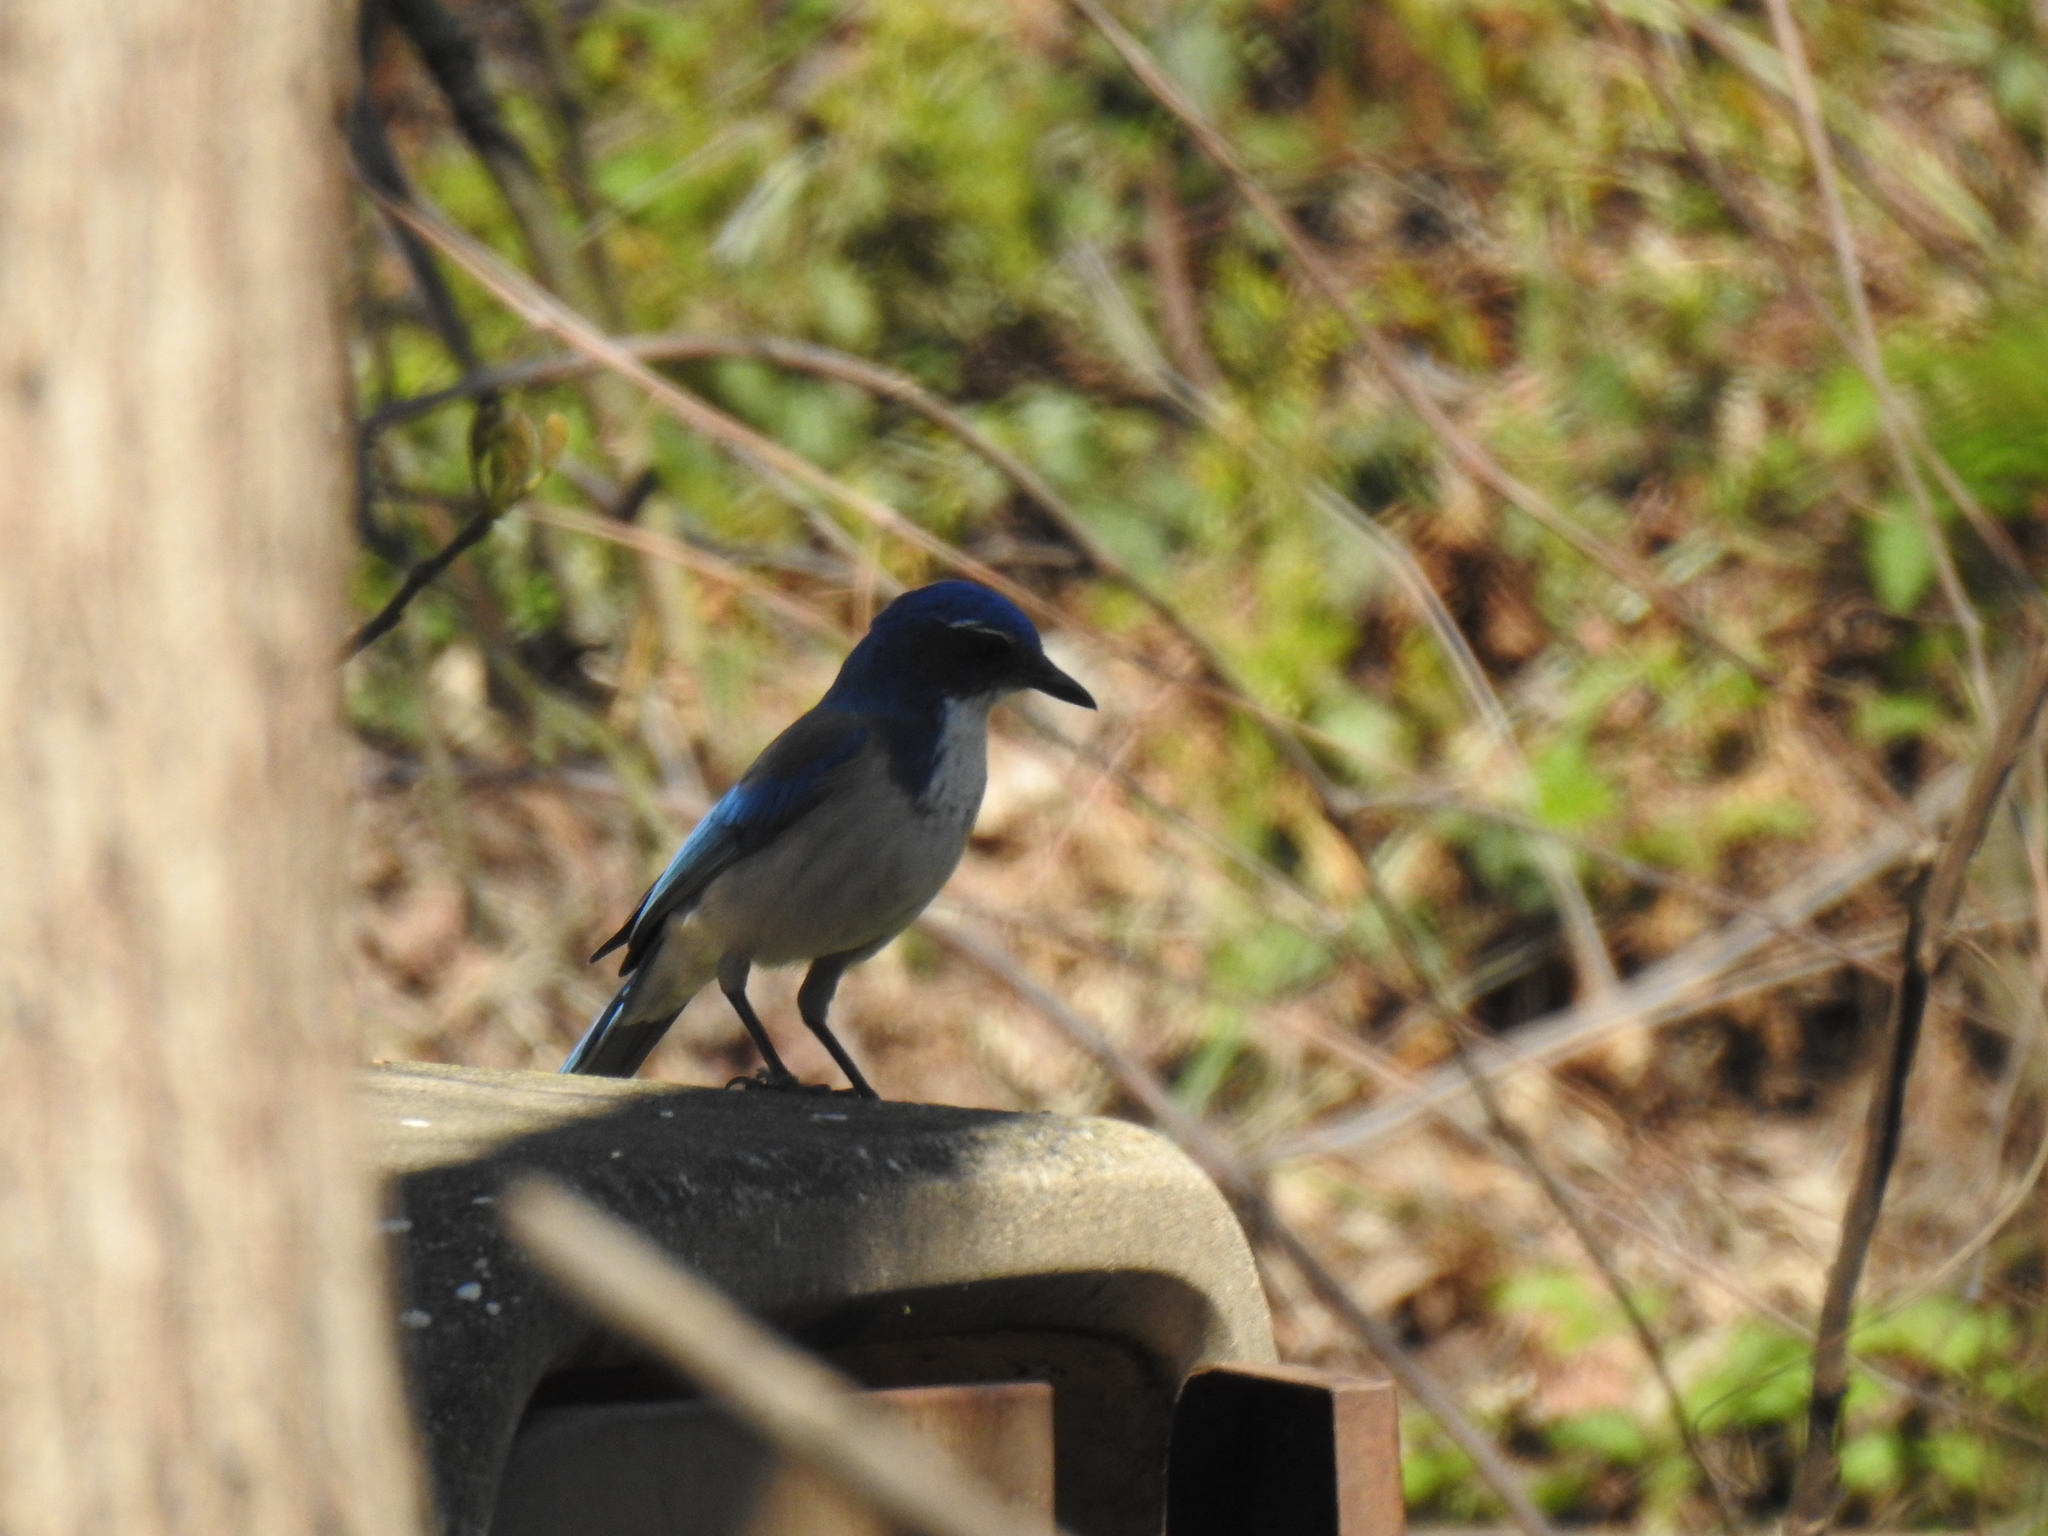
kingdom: Animalia
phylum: Chordata
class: Aves
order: Passeriformes
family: Corvidae
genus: Aphelocoma
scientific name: Aphelocoma californica
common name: California scrub-jay
